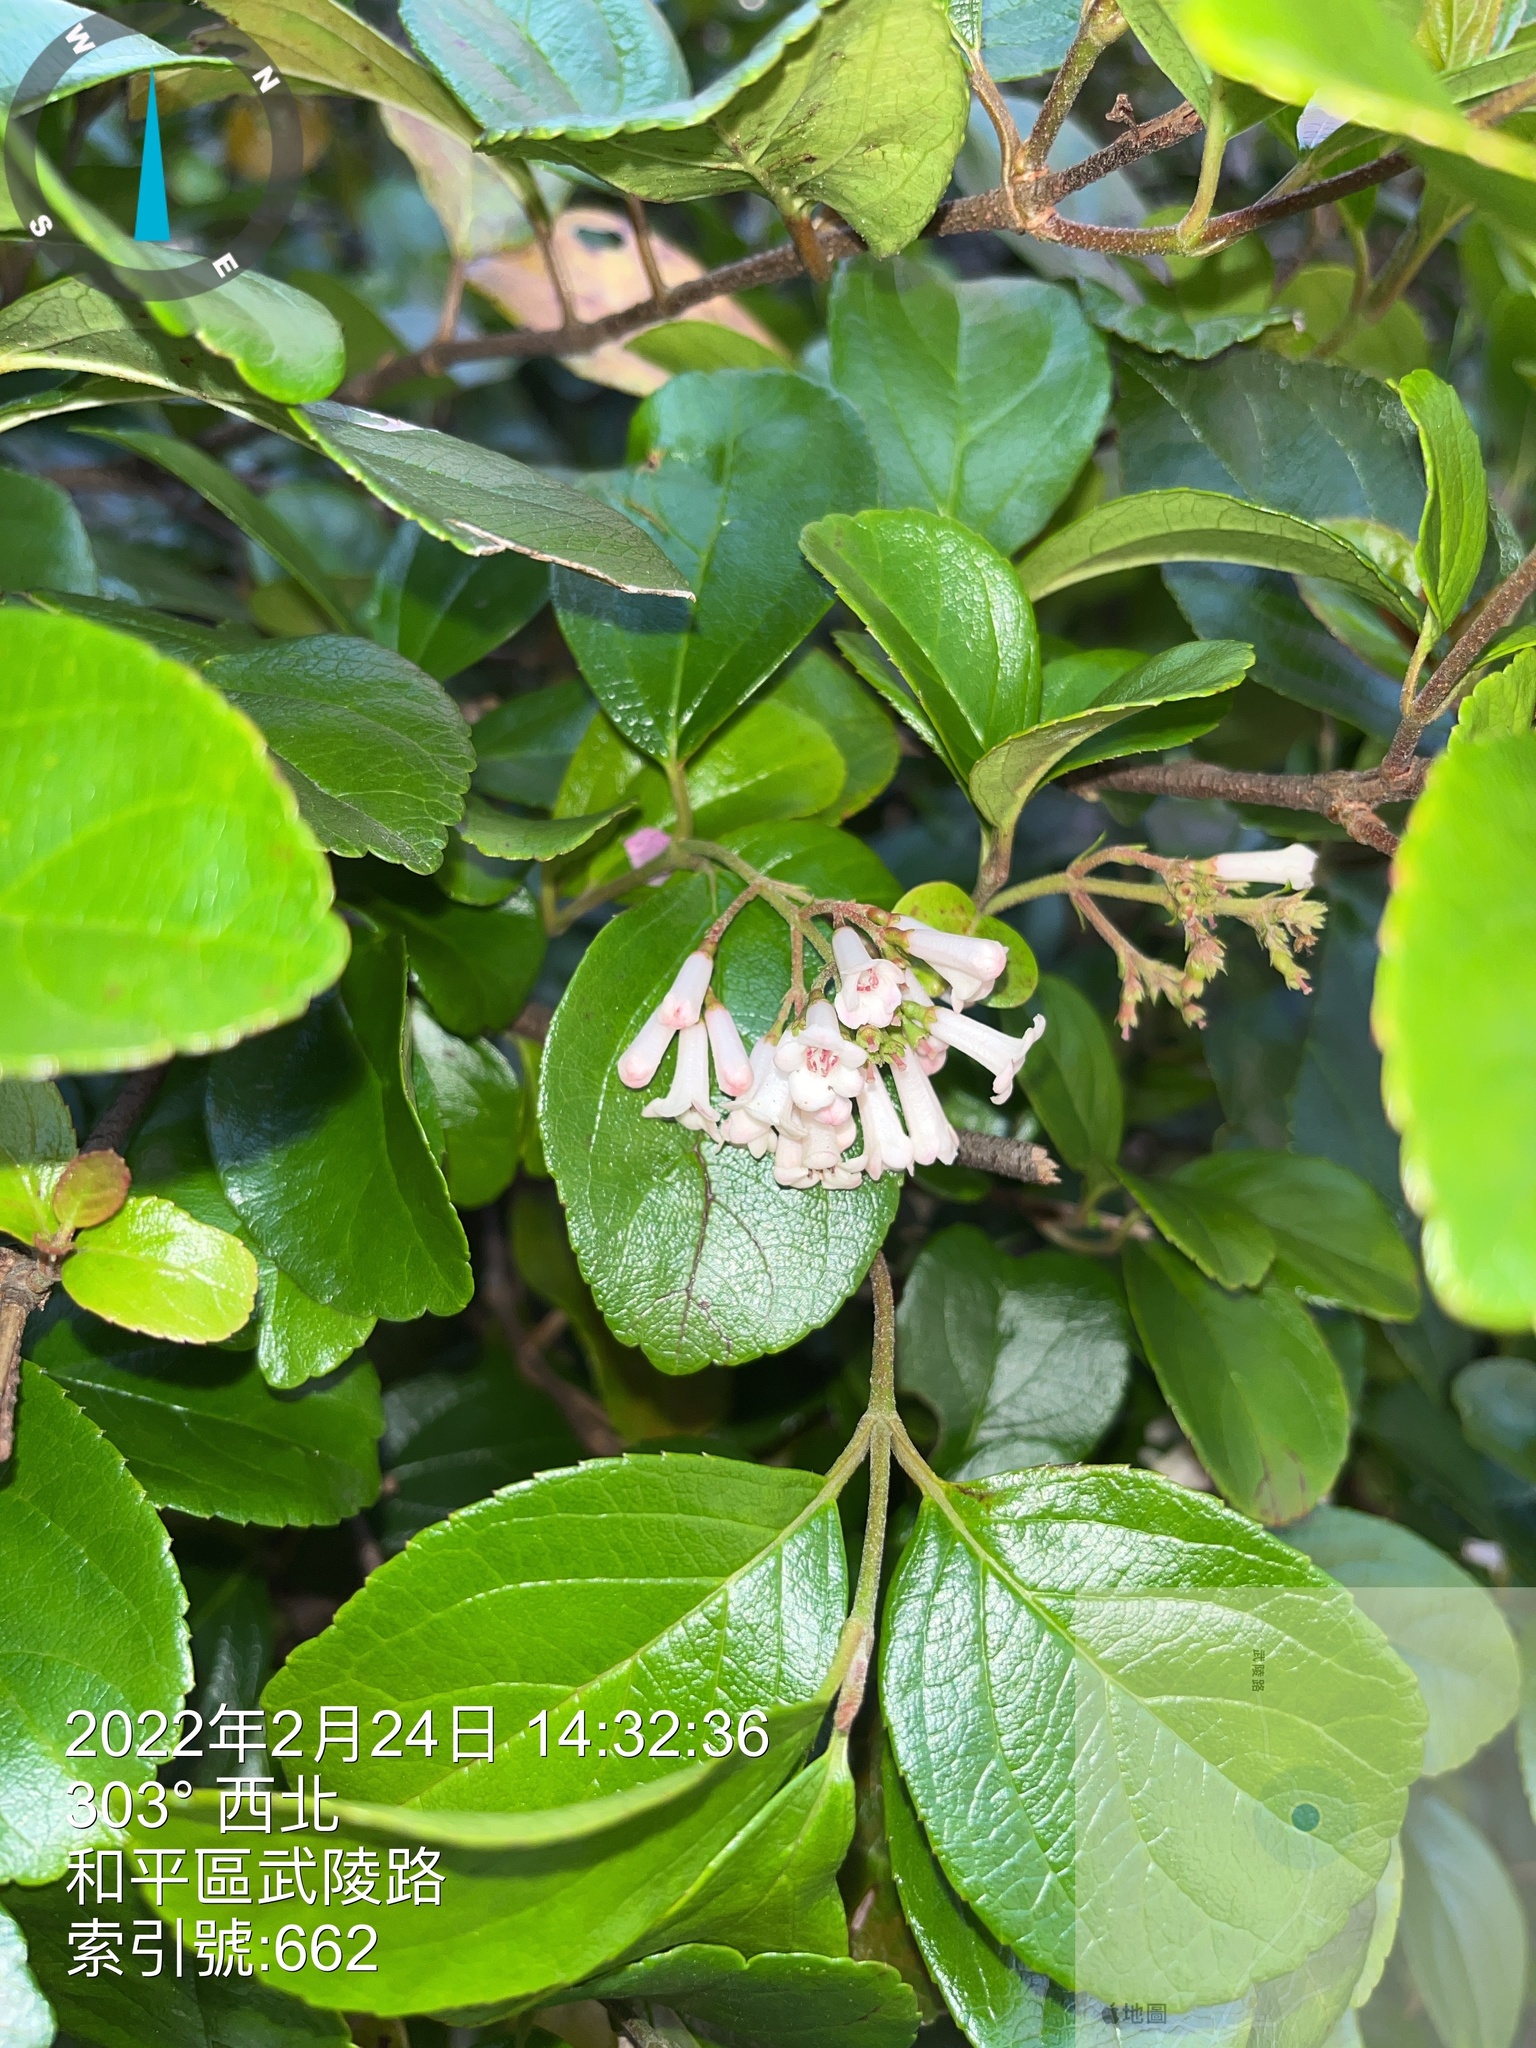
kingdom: Plantae
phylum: Tracheophyta
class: Magnoliopsida
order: Dipsacales
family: Viburnaceae
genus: Viburnum
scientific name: Viburnum taitoense
